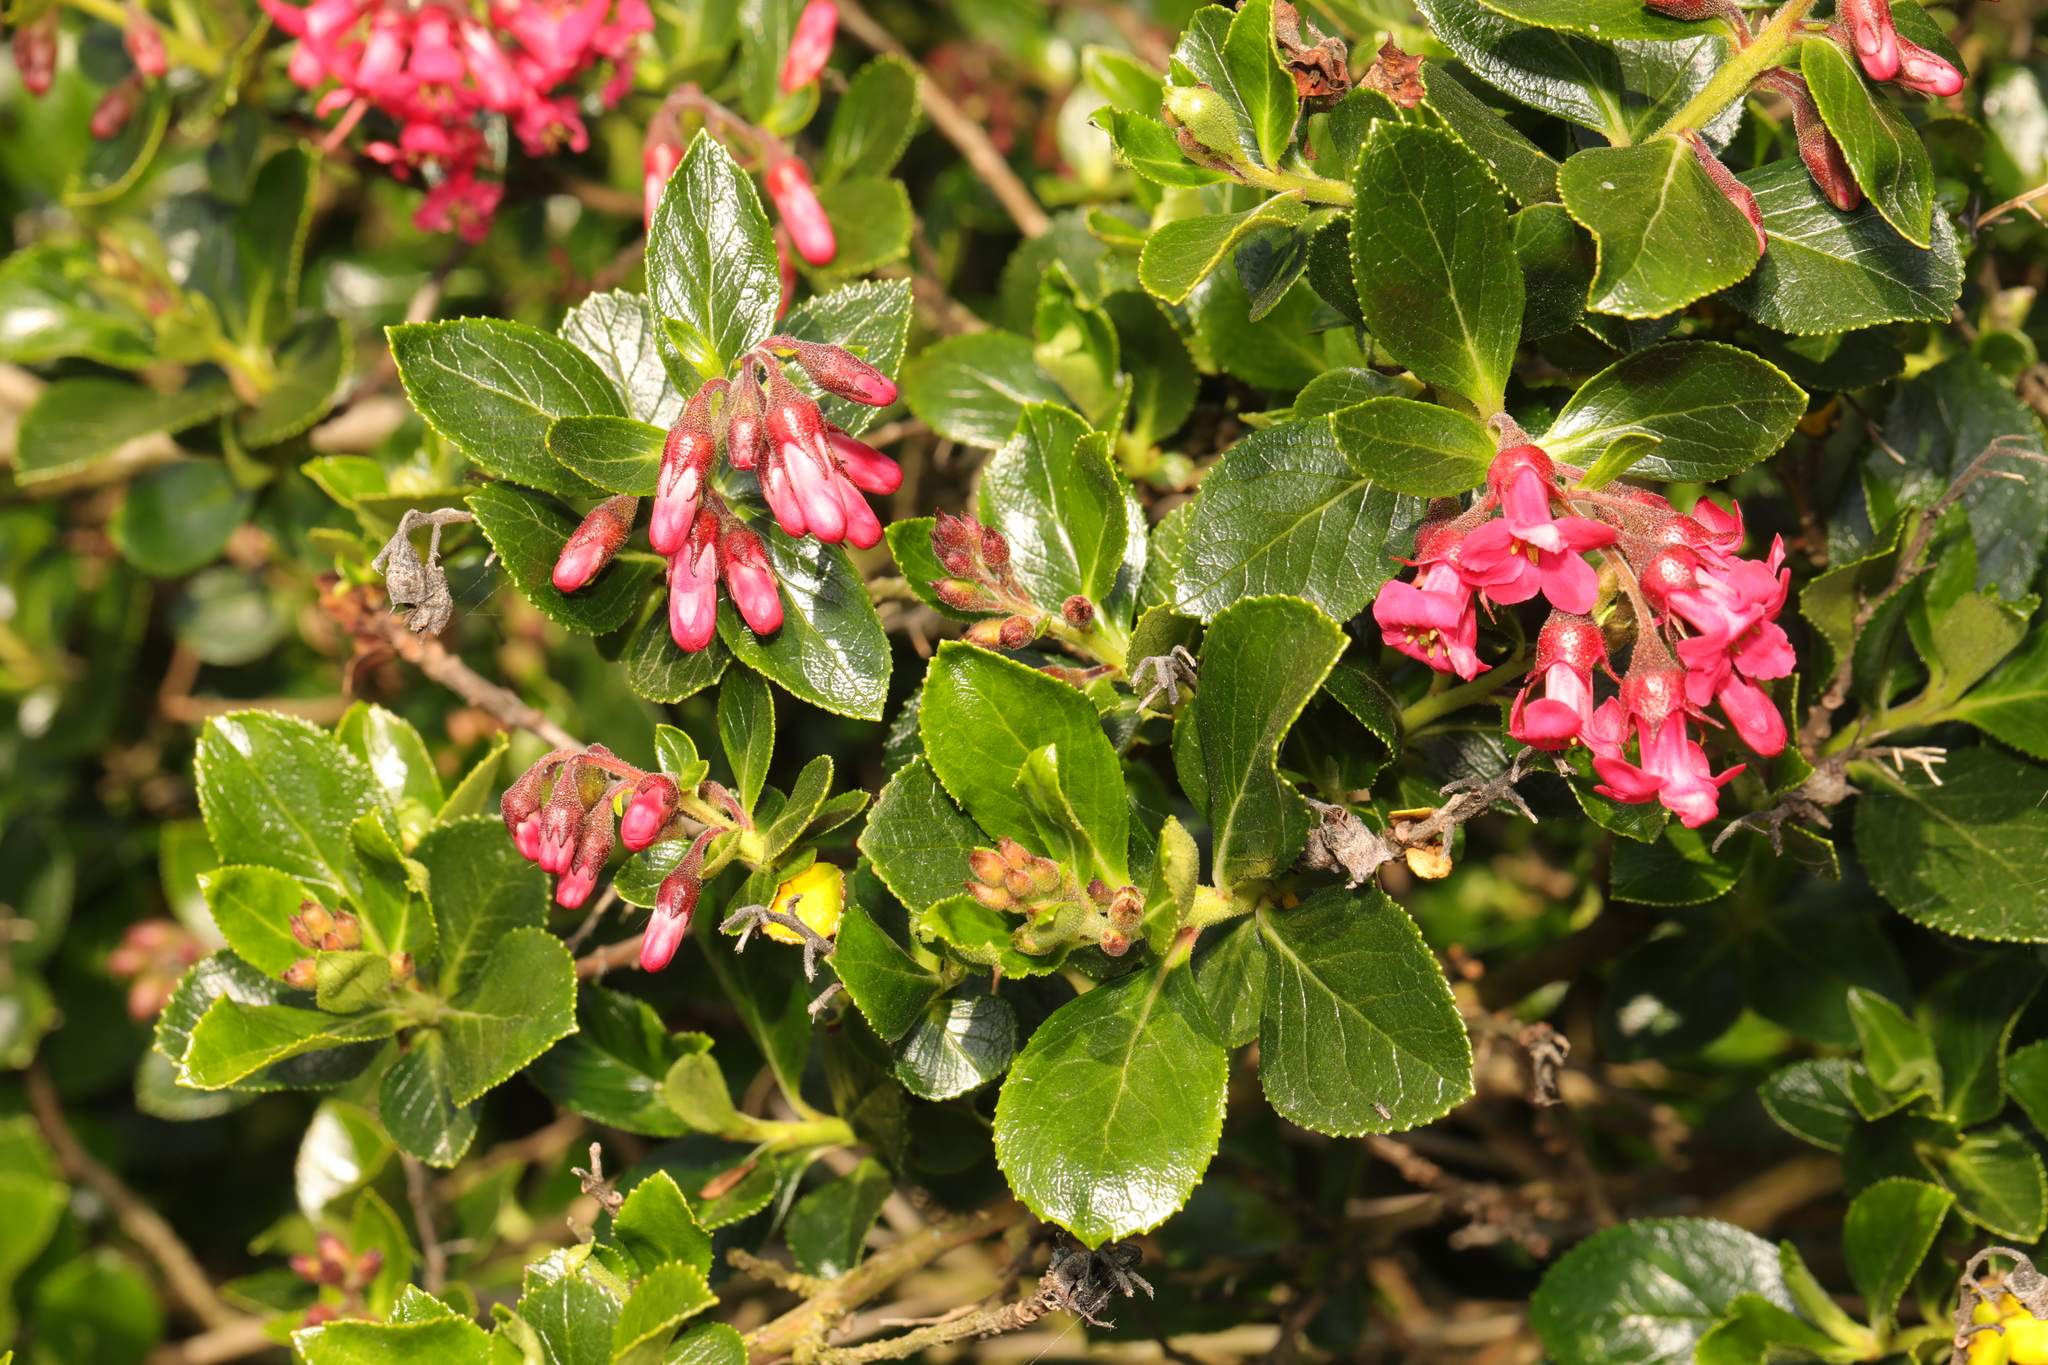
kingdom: Plantae
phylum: Tracheophyta
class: Magnoliopsida
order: Escalloniales
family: Escalloniaceae
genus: Escallonia
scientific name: Escallonia rubra
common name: Redclaws
